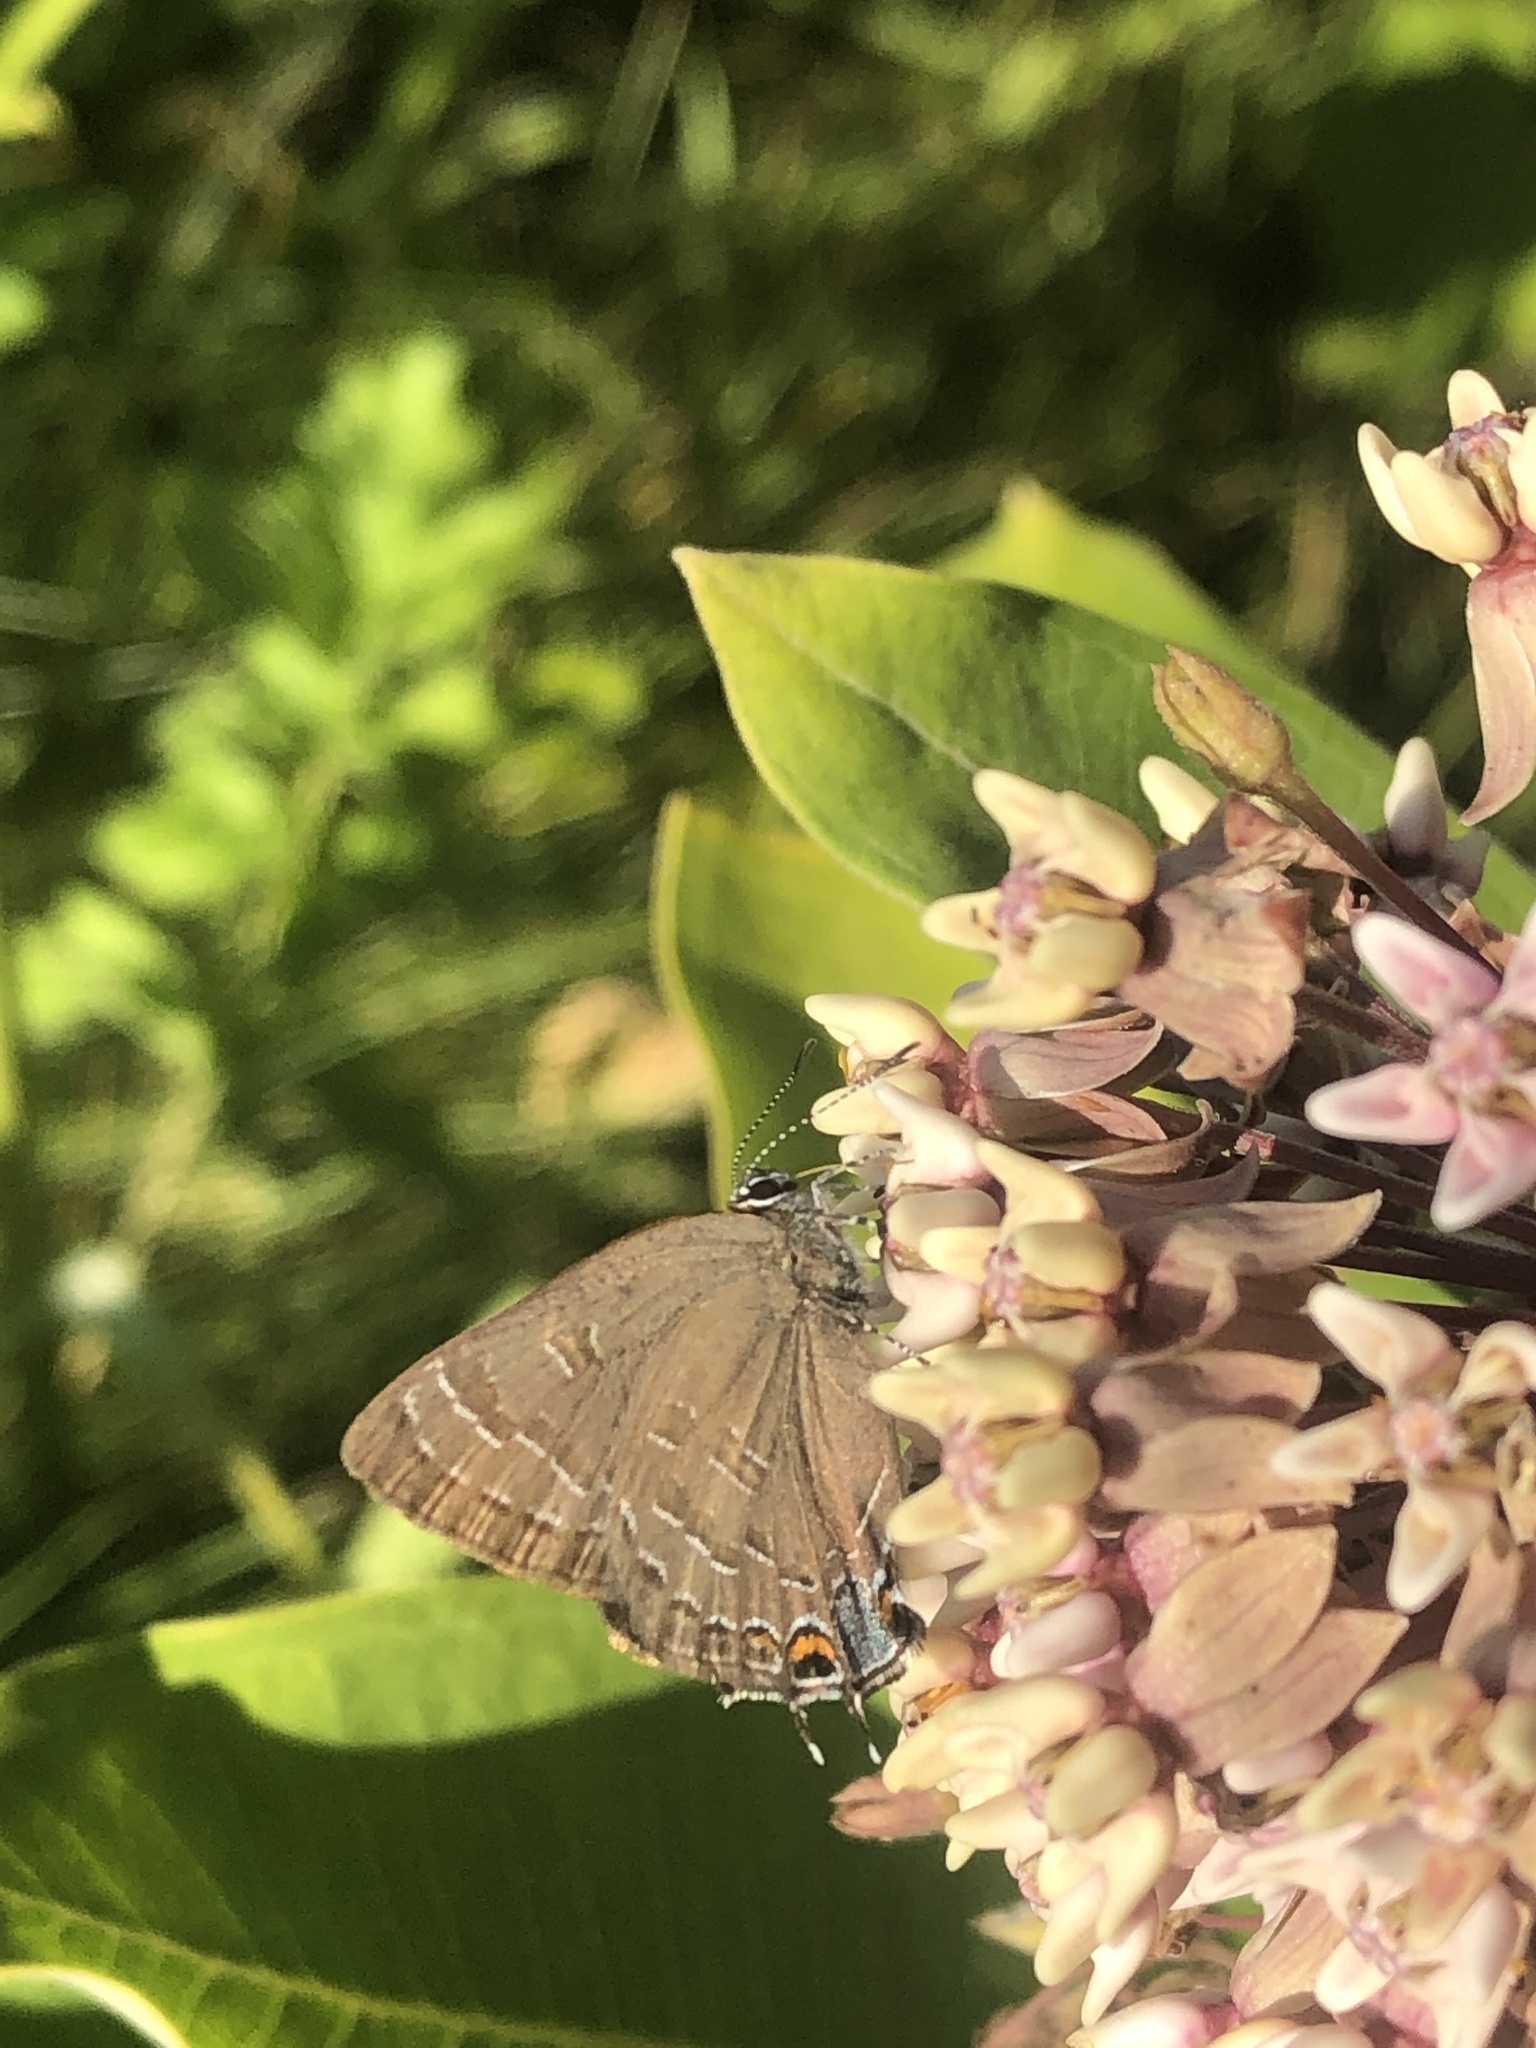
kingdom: Animalia
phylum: Arthropoda
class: Insecta
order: Lepidoptera
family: Lycaenidae
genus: Strymon
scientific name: Strymon caryaevorus
